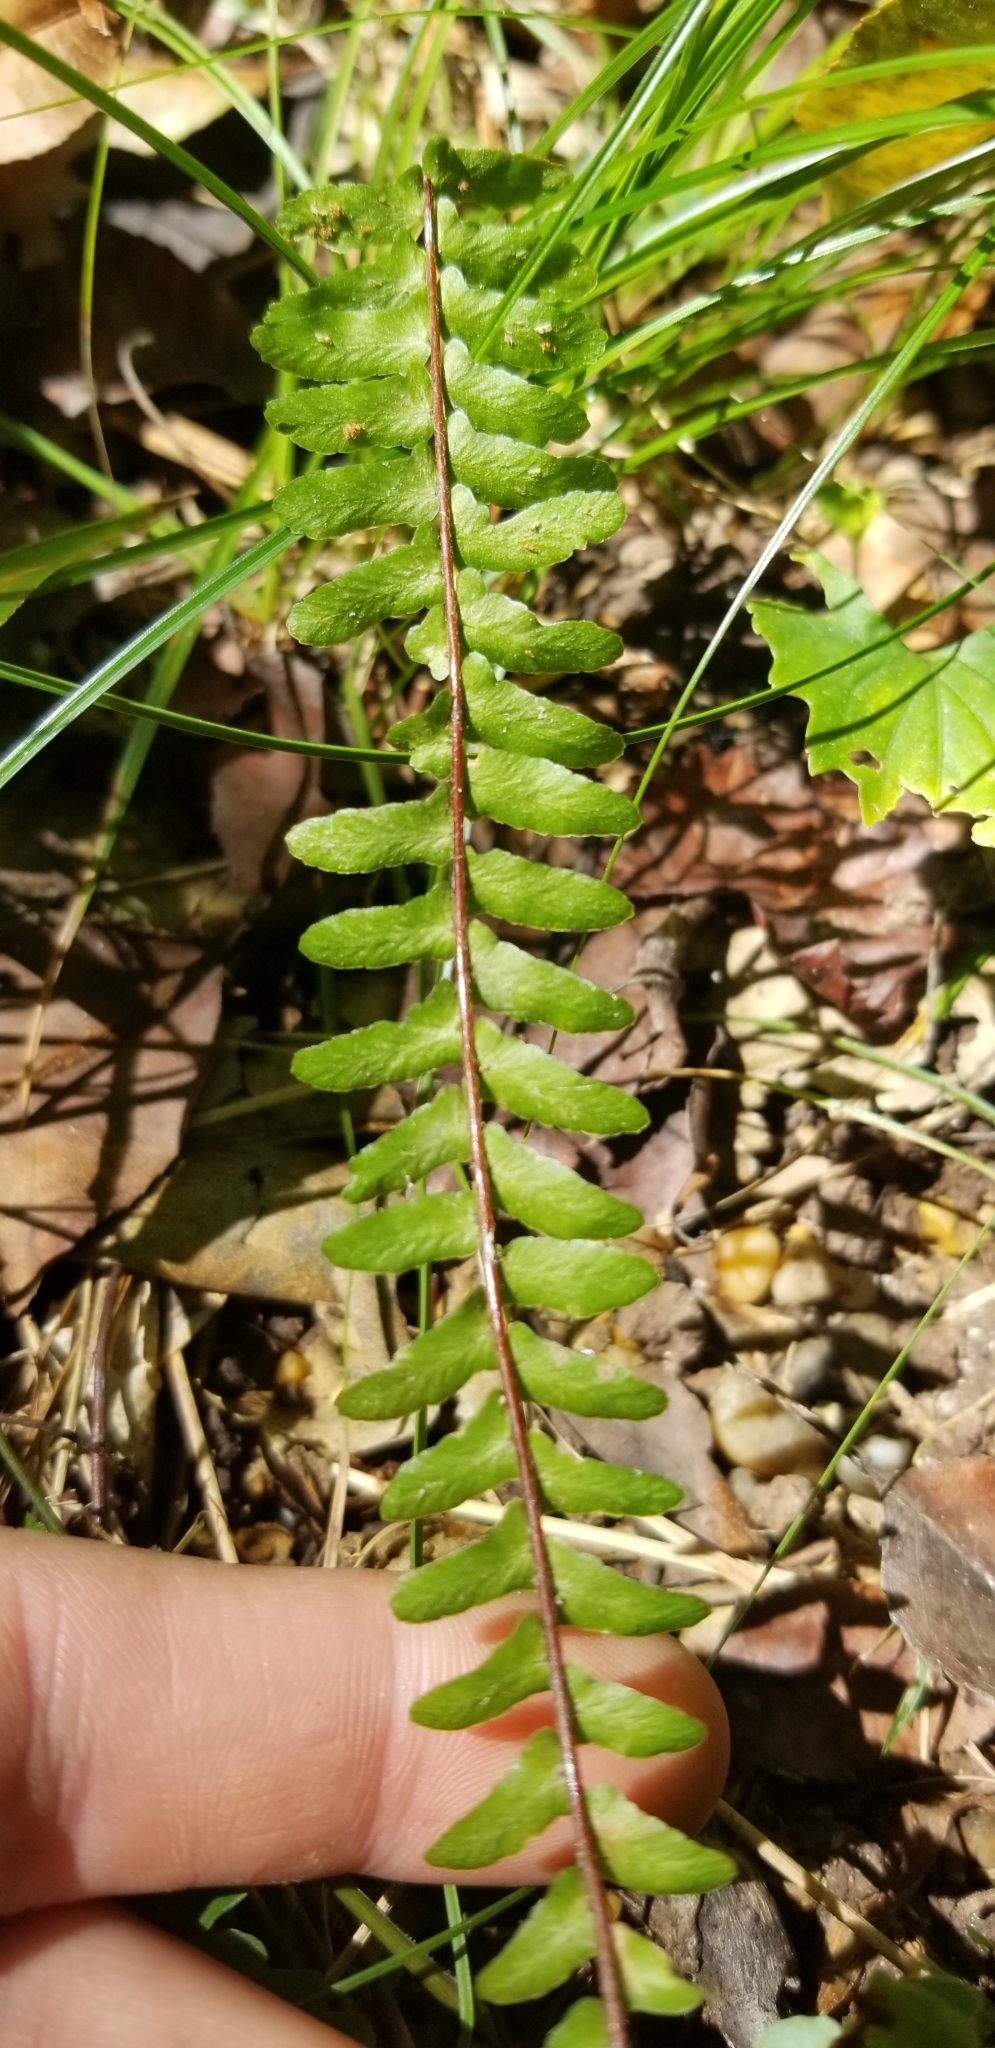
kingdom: Plantae
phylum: Tracheophyta
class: Polypodiopsida
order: Polypodiales
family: Aspleniaceae
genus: Asplenium
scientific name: Asplenium platyneuron
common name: Ebony spleenwort
